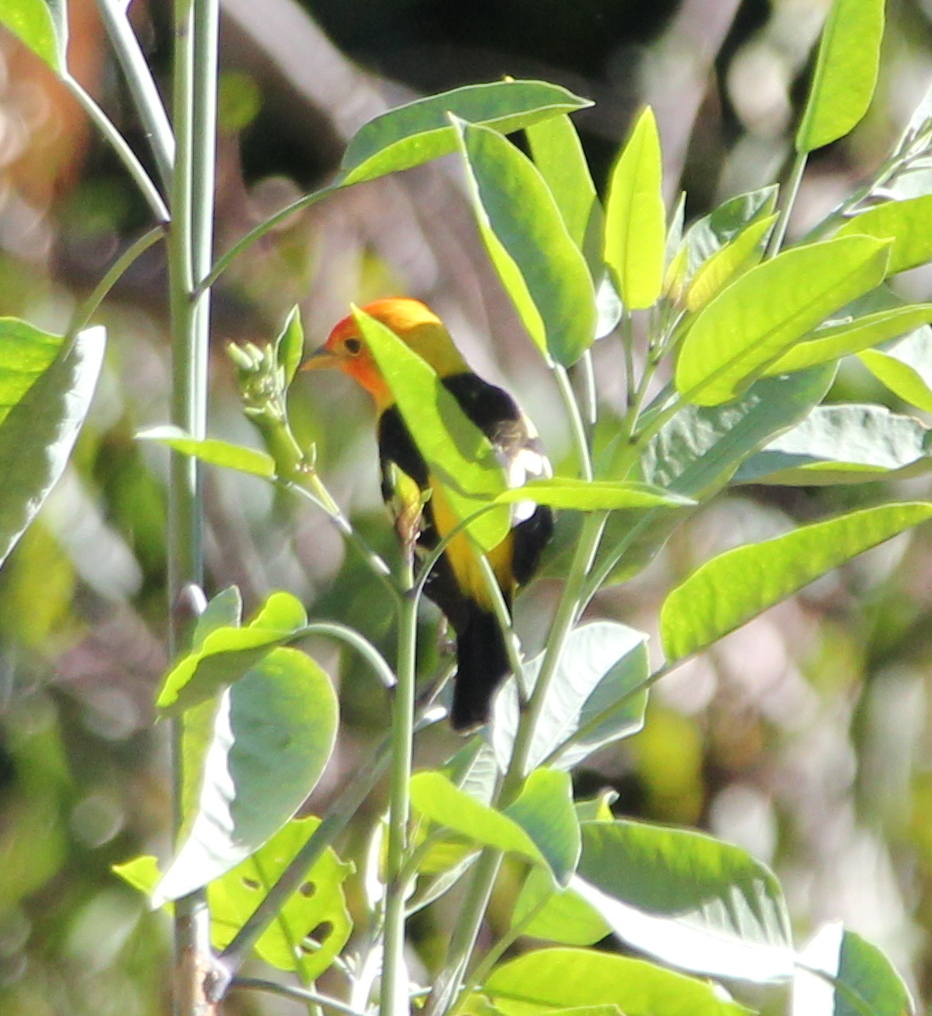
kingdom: Animalia
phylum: Chordata
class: Aves
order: Passeriformes
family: Cardinalidae
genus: Piranga
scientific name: Piranga ludoviciana
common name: Western tanager
